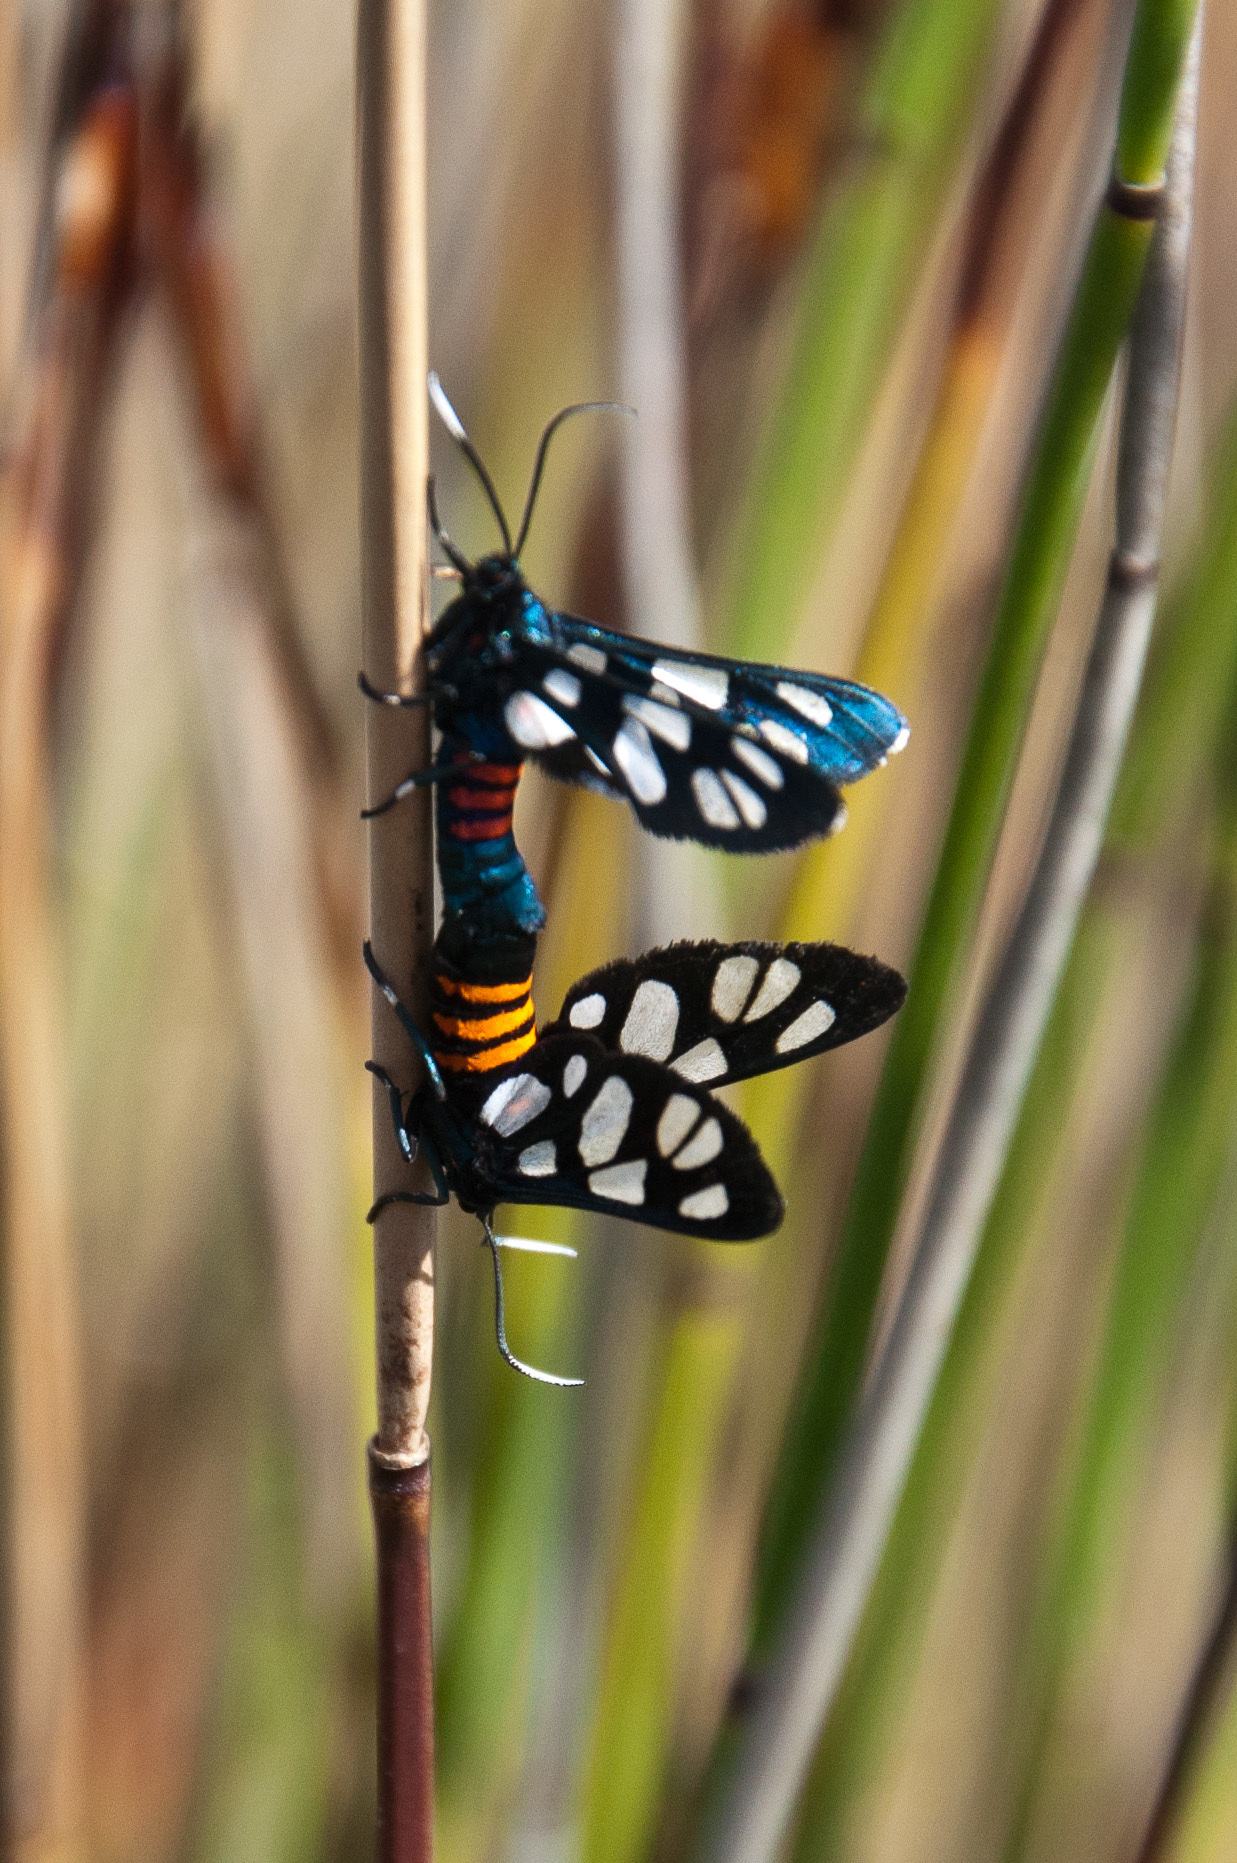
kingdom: Animalia
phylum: Arthropoda
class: Insecta
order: Lepidoptera
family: Erebidae
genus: Amata
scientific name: Amata cerbera
